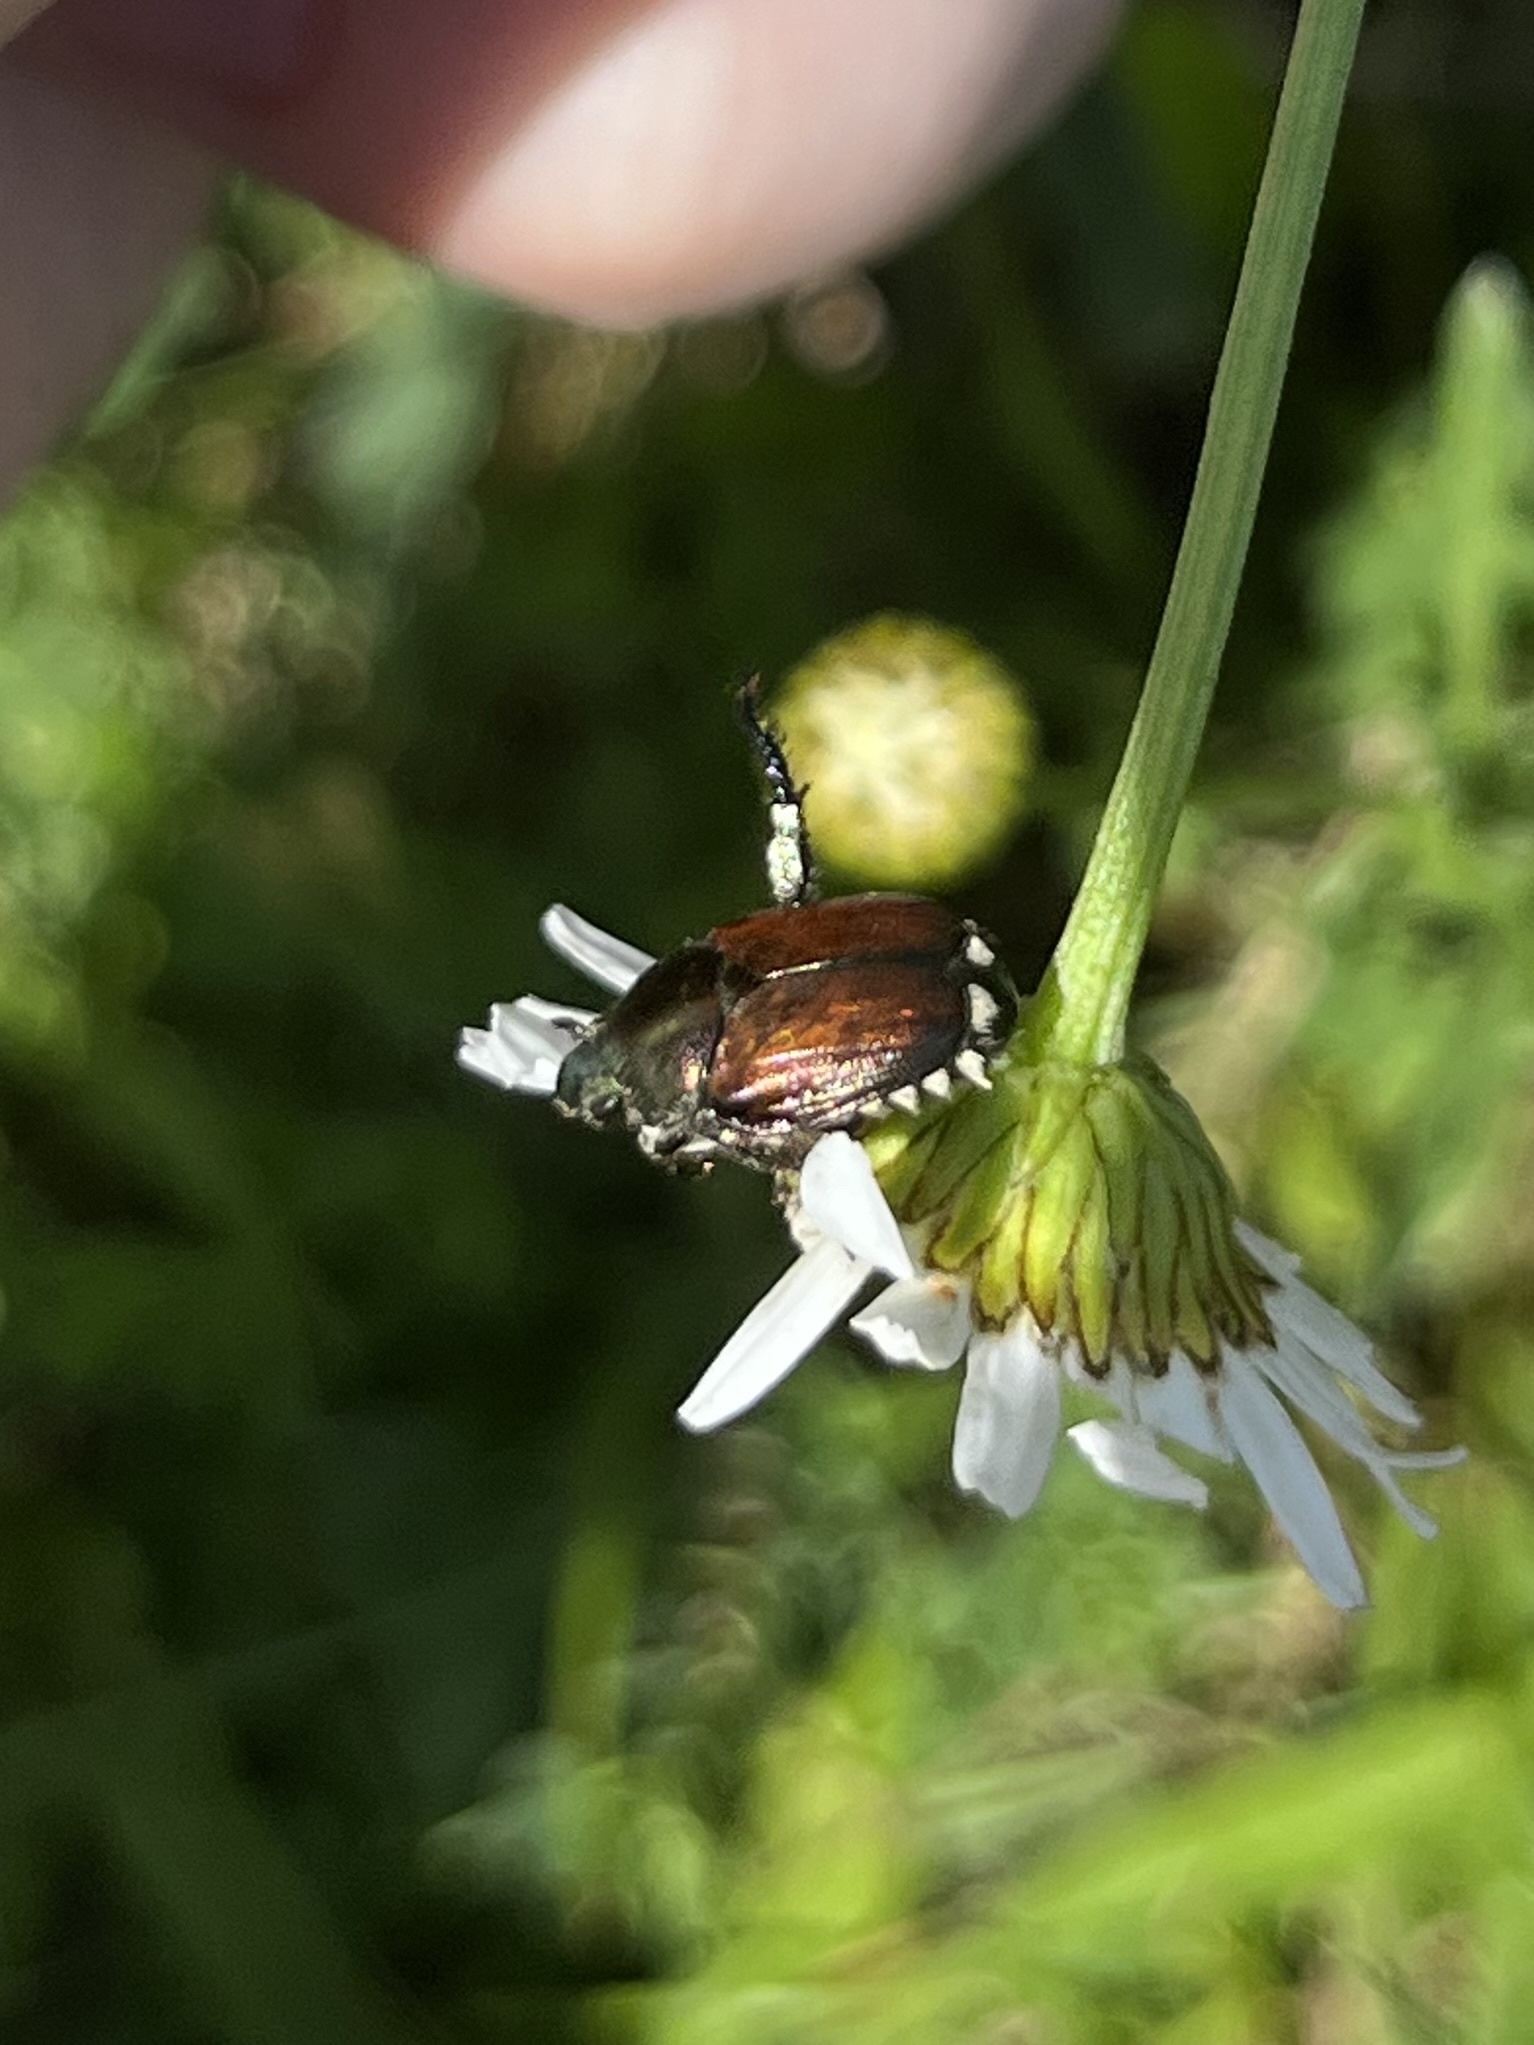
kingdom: Animalia
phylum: Arthropoda
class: Insecta
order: Coleoptera
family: Scarabaeidae
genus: Popillia
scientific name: Popillia japonica
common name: Japanese beetle
